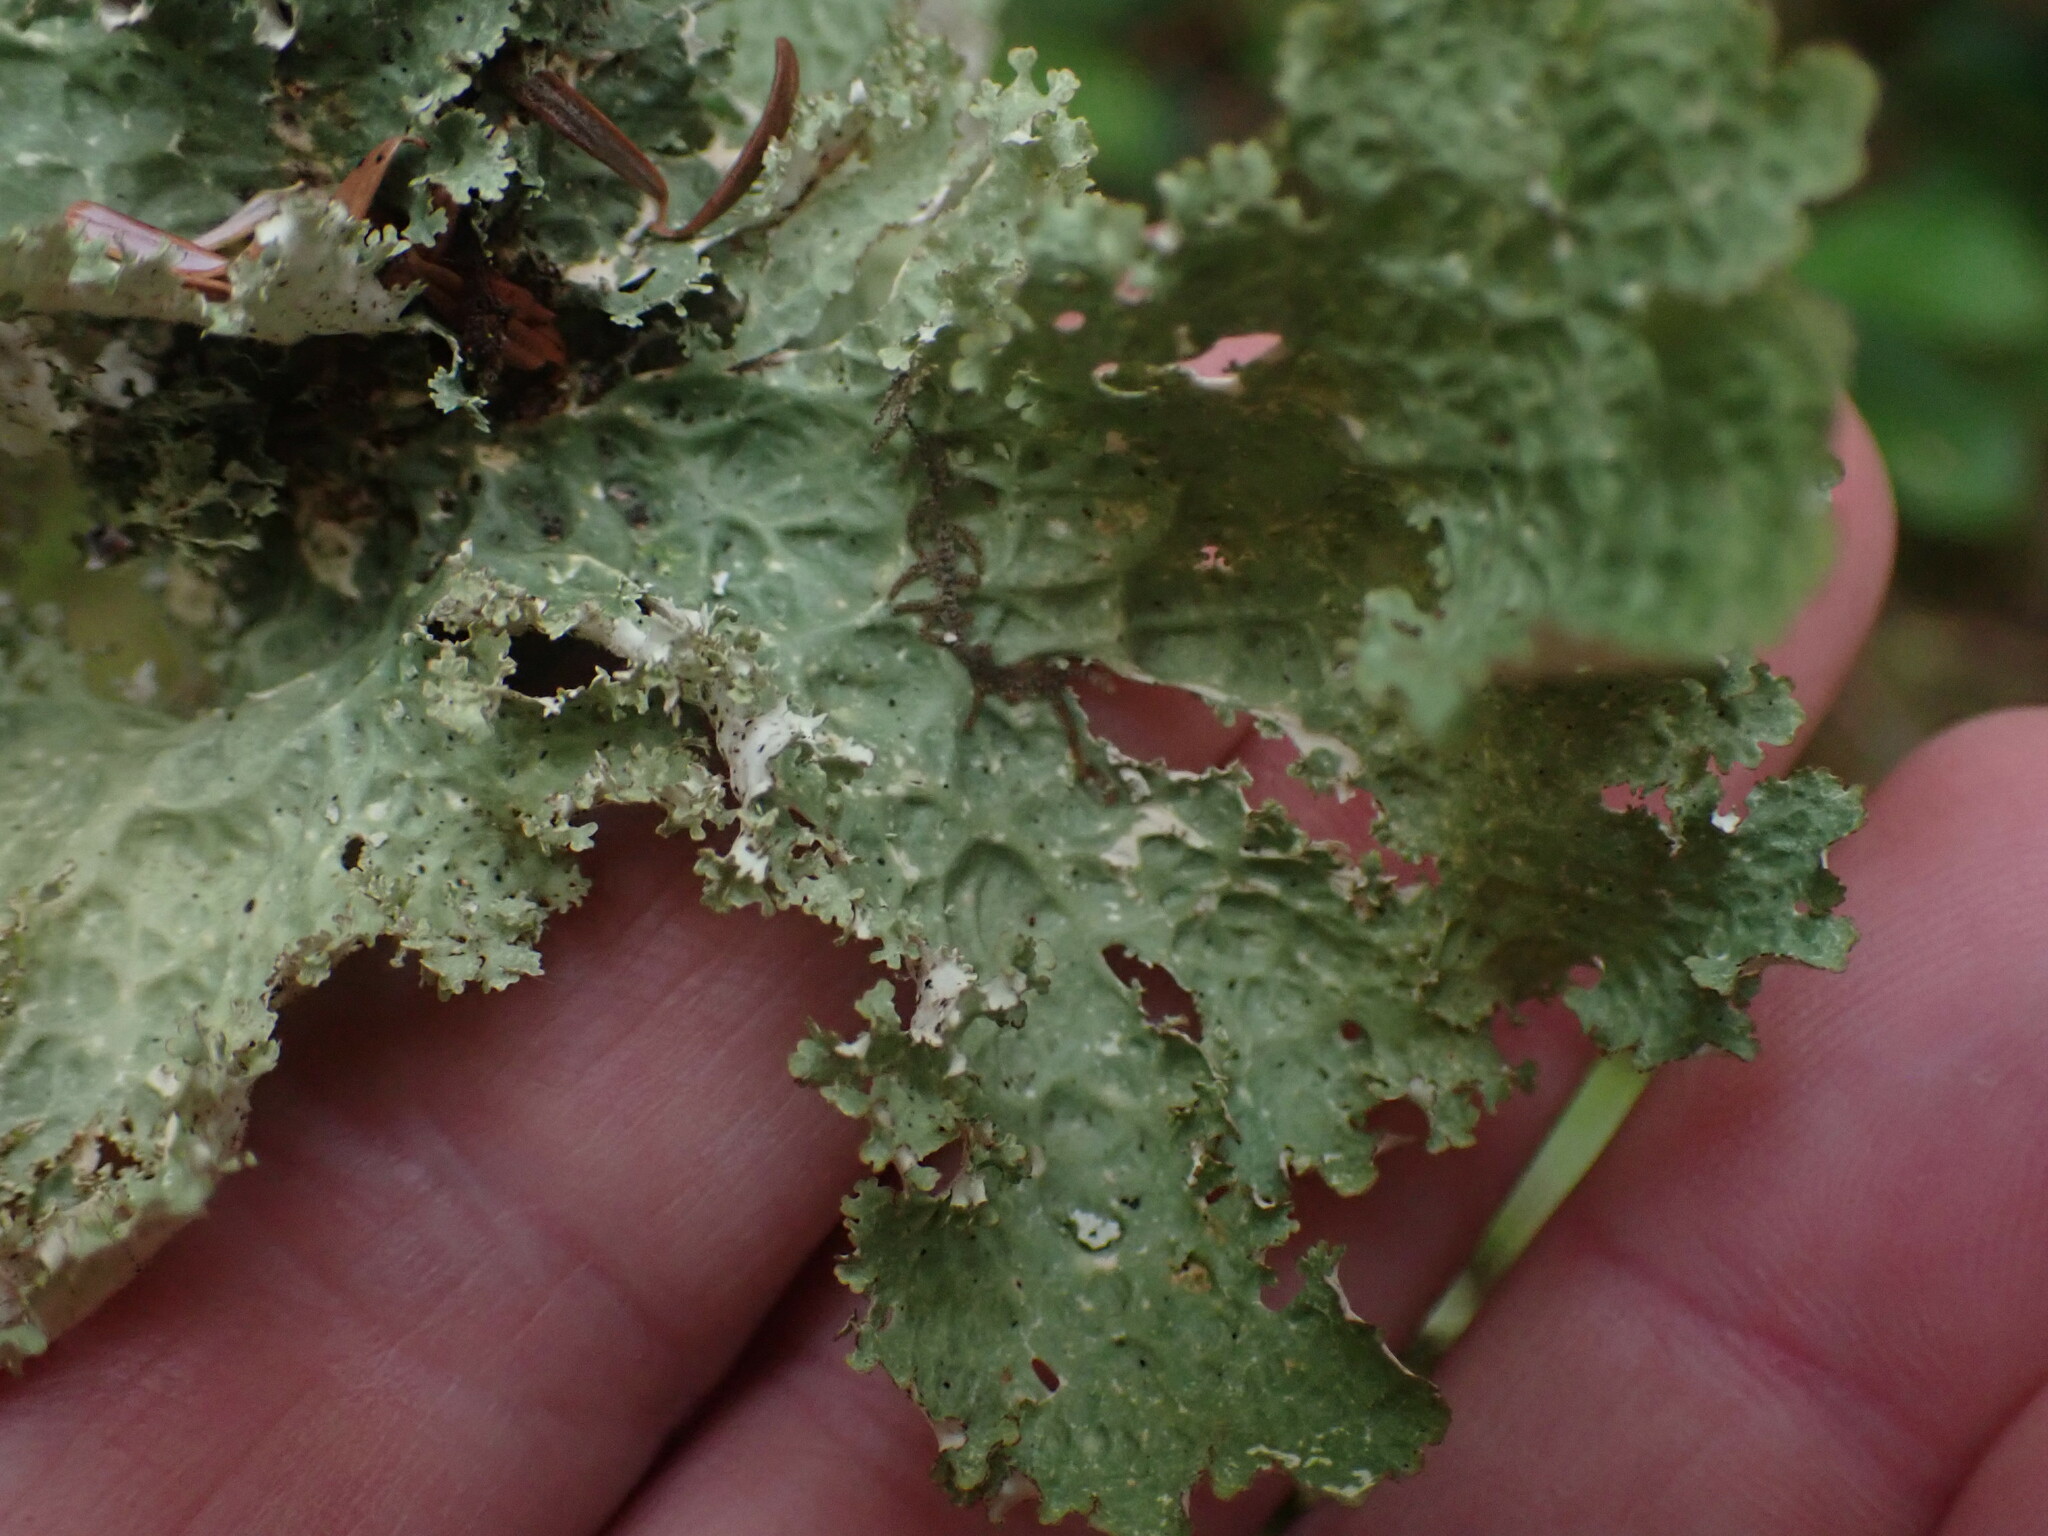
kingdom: Fungi
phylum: Ascomycota
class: Lecanoromycetes
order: Peltigerales
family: Lobariaceae
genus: Lobaria
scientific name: Lobaria oregana
